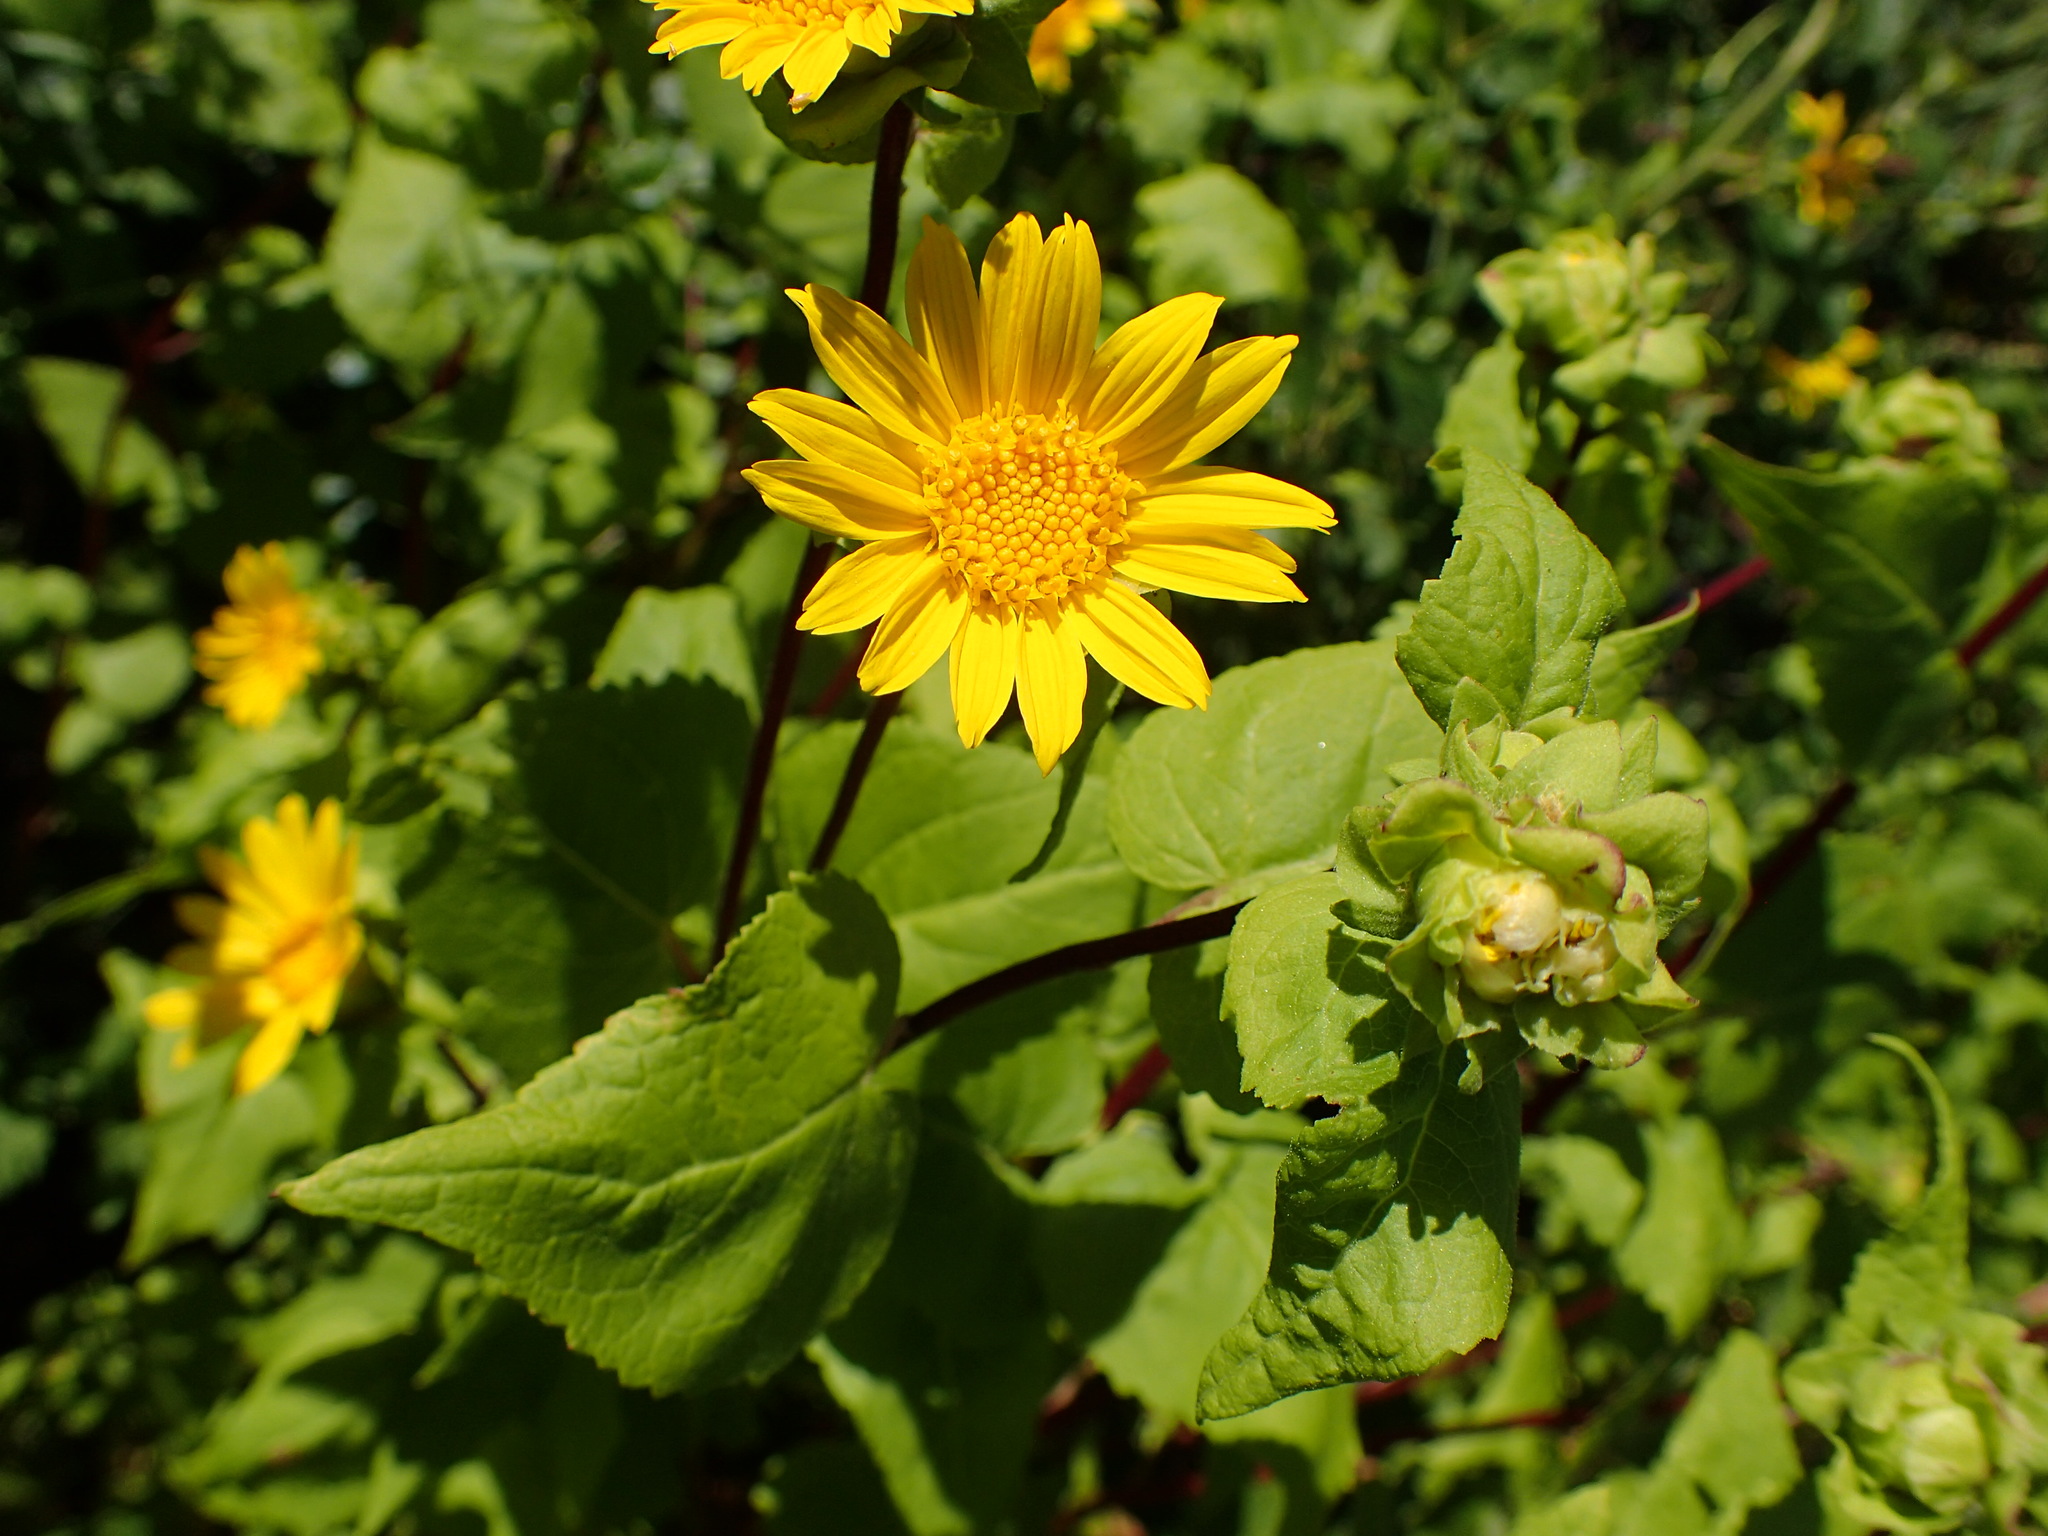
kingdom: Plantae
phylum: Tracheophyta
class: Magnoliopsida
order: Asterales
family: Asteraceae
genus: Venegasia
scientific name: Venegasia carpesioides
